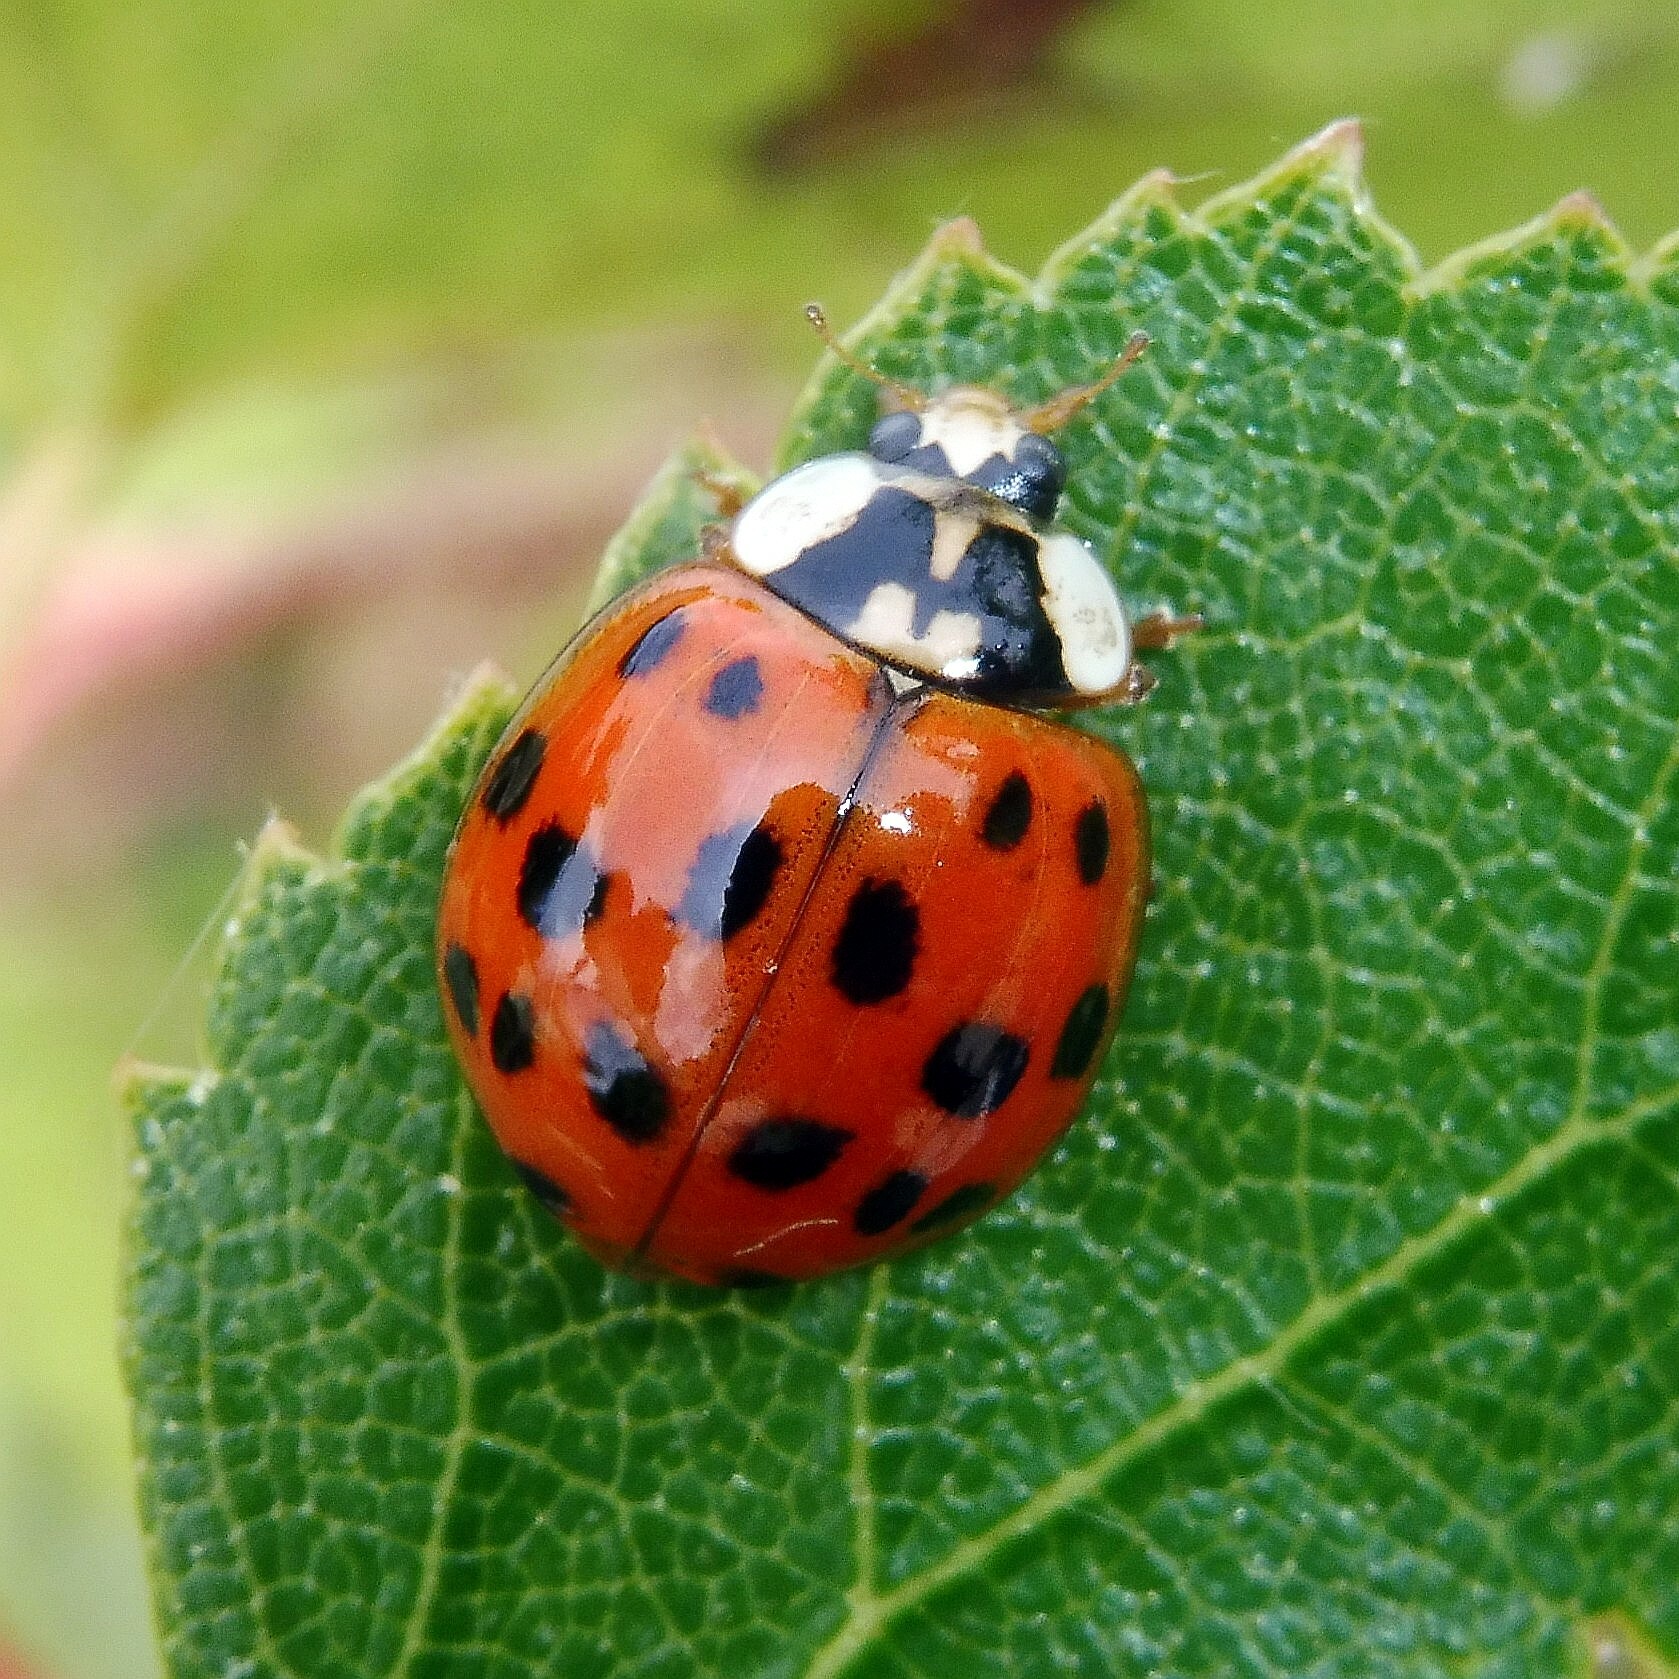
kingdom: Animalia
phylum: Arthropoda
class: Insecta
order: Coleoptera
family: Coccinellidae
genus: Harmonia
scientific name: Harmonia axyridis
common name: Harlequin ladybird
